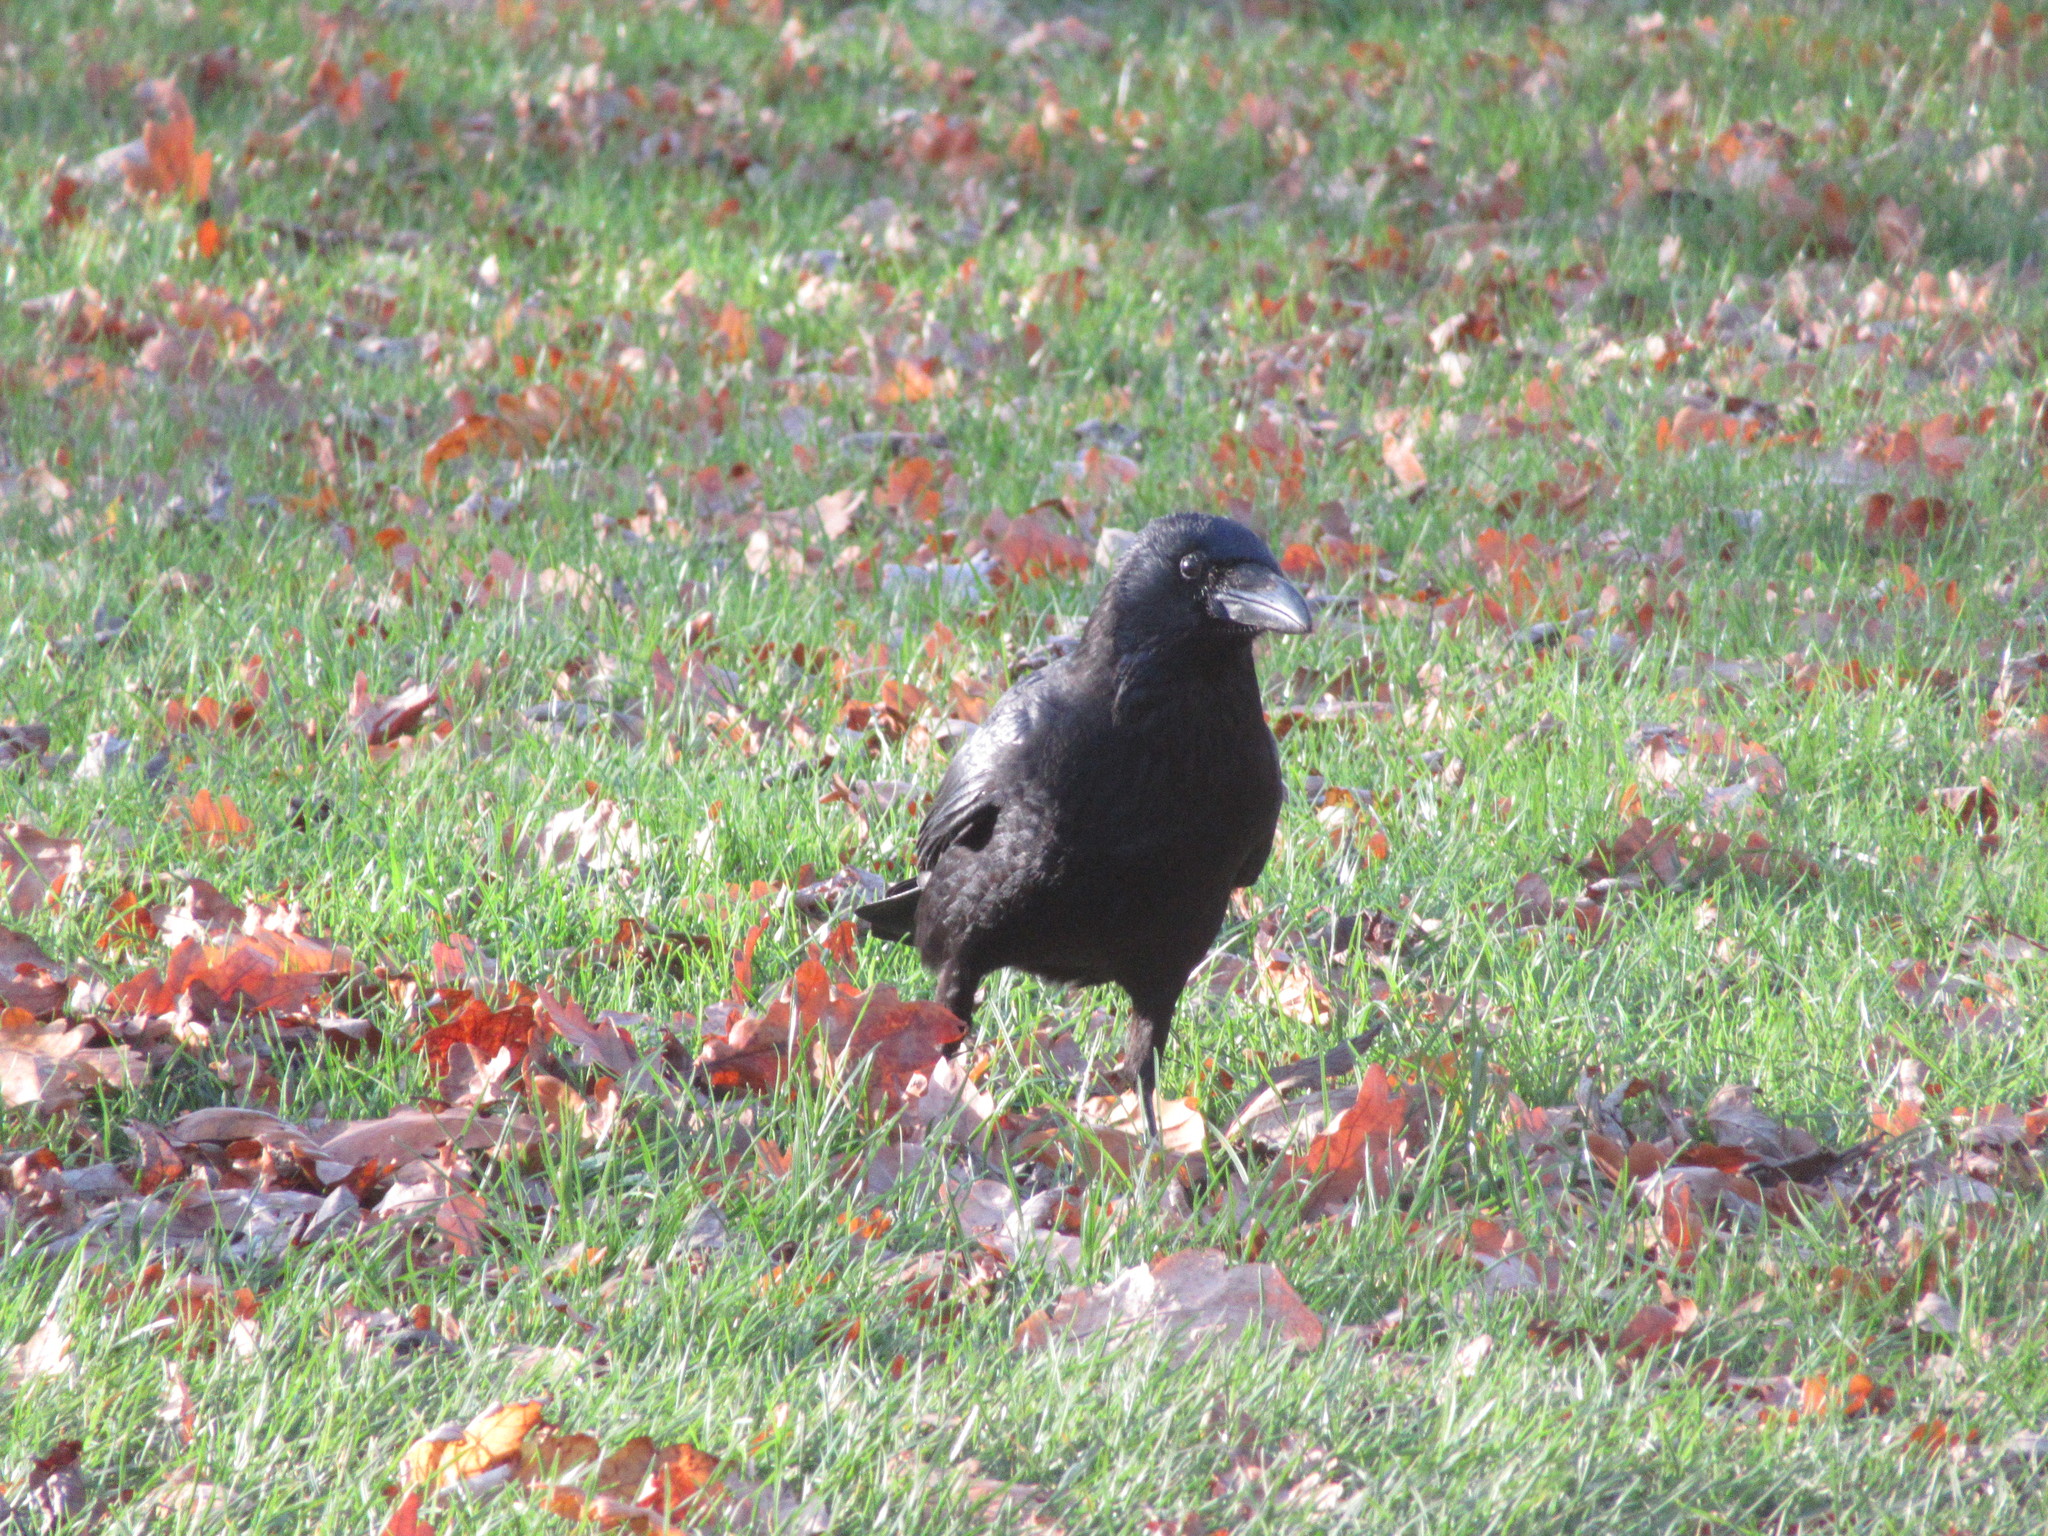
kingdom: Animalia
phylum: Chordata
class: Aves
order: Passeriformes
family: Corvidae
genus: Corvus
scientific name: Corvus corone
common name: Carrion crow
